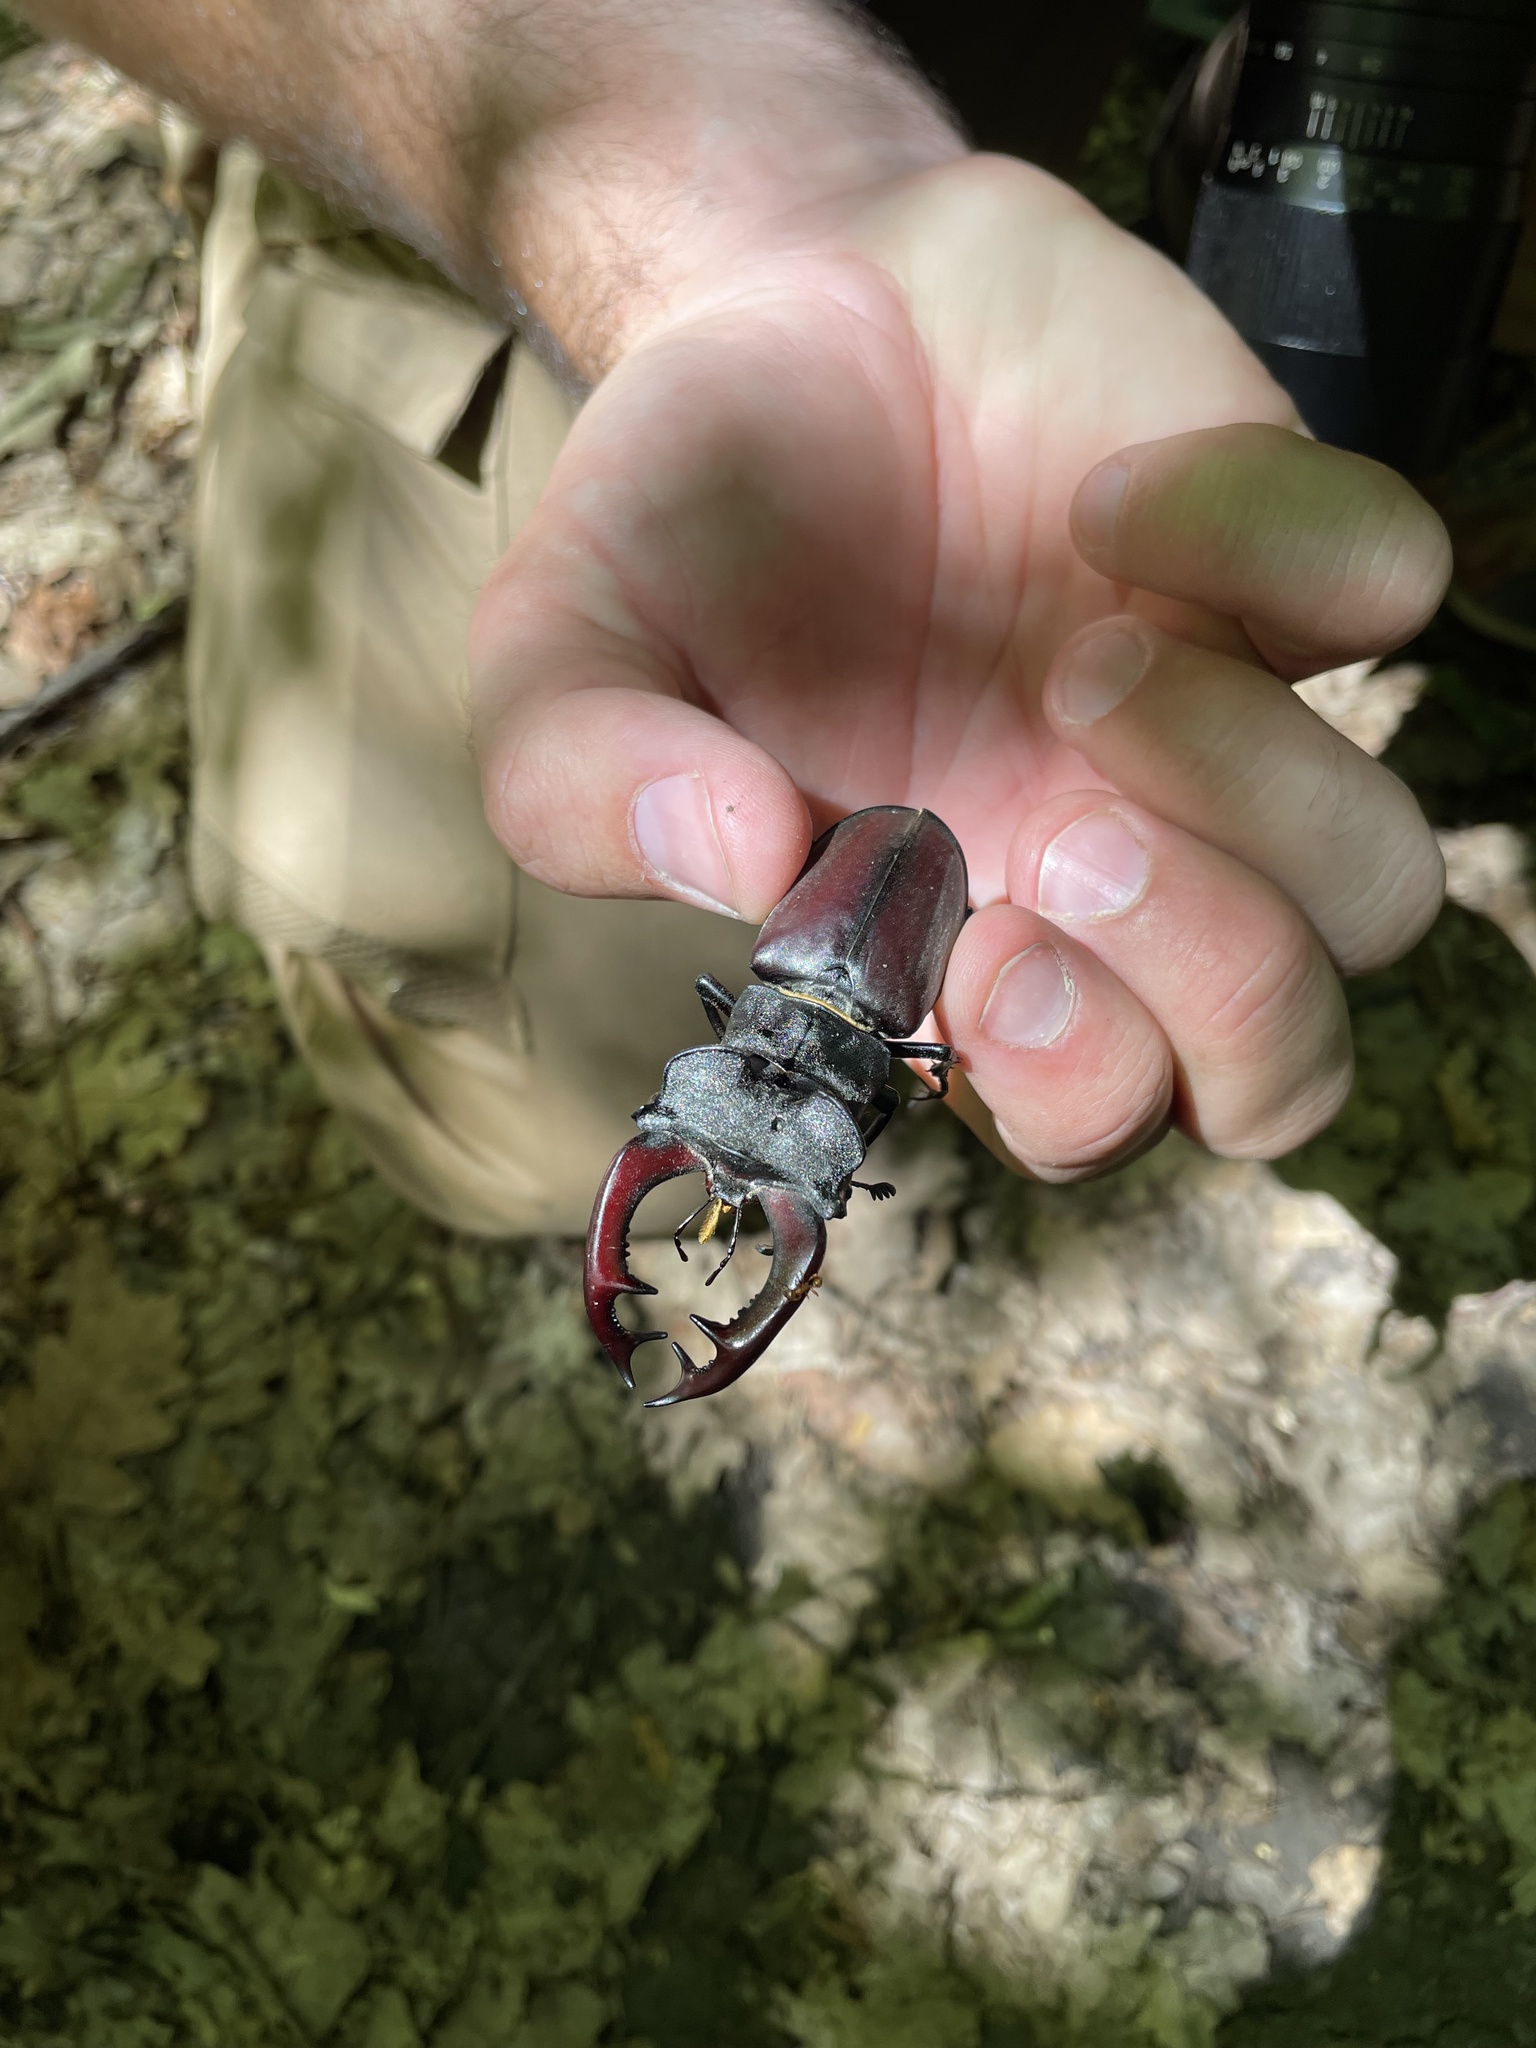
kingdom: Animalia
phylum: Arthropoda
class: Insecta
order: Coleoptera
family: Lucanidae
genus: Lucanus
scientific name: Lucanus cervus
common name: Stag beetle
